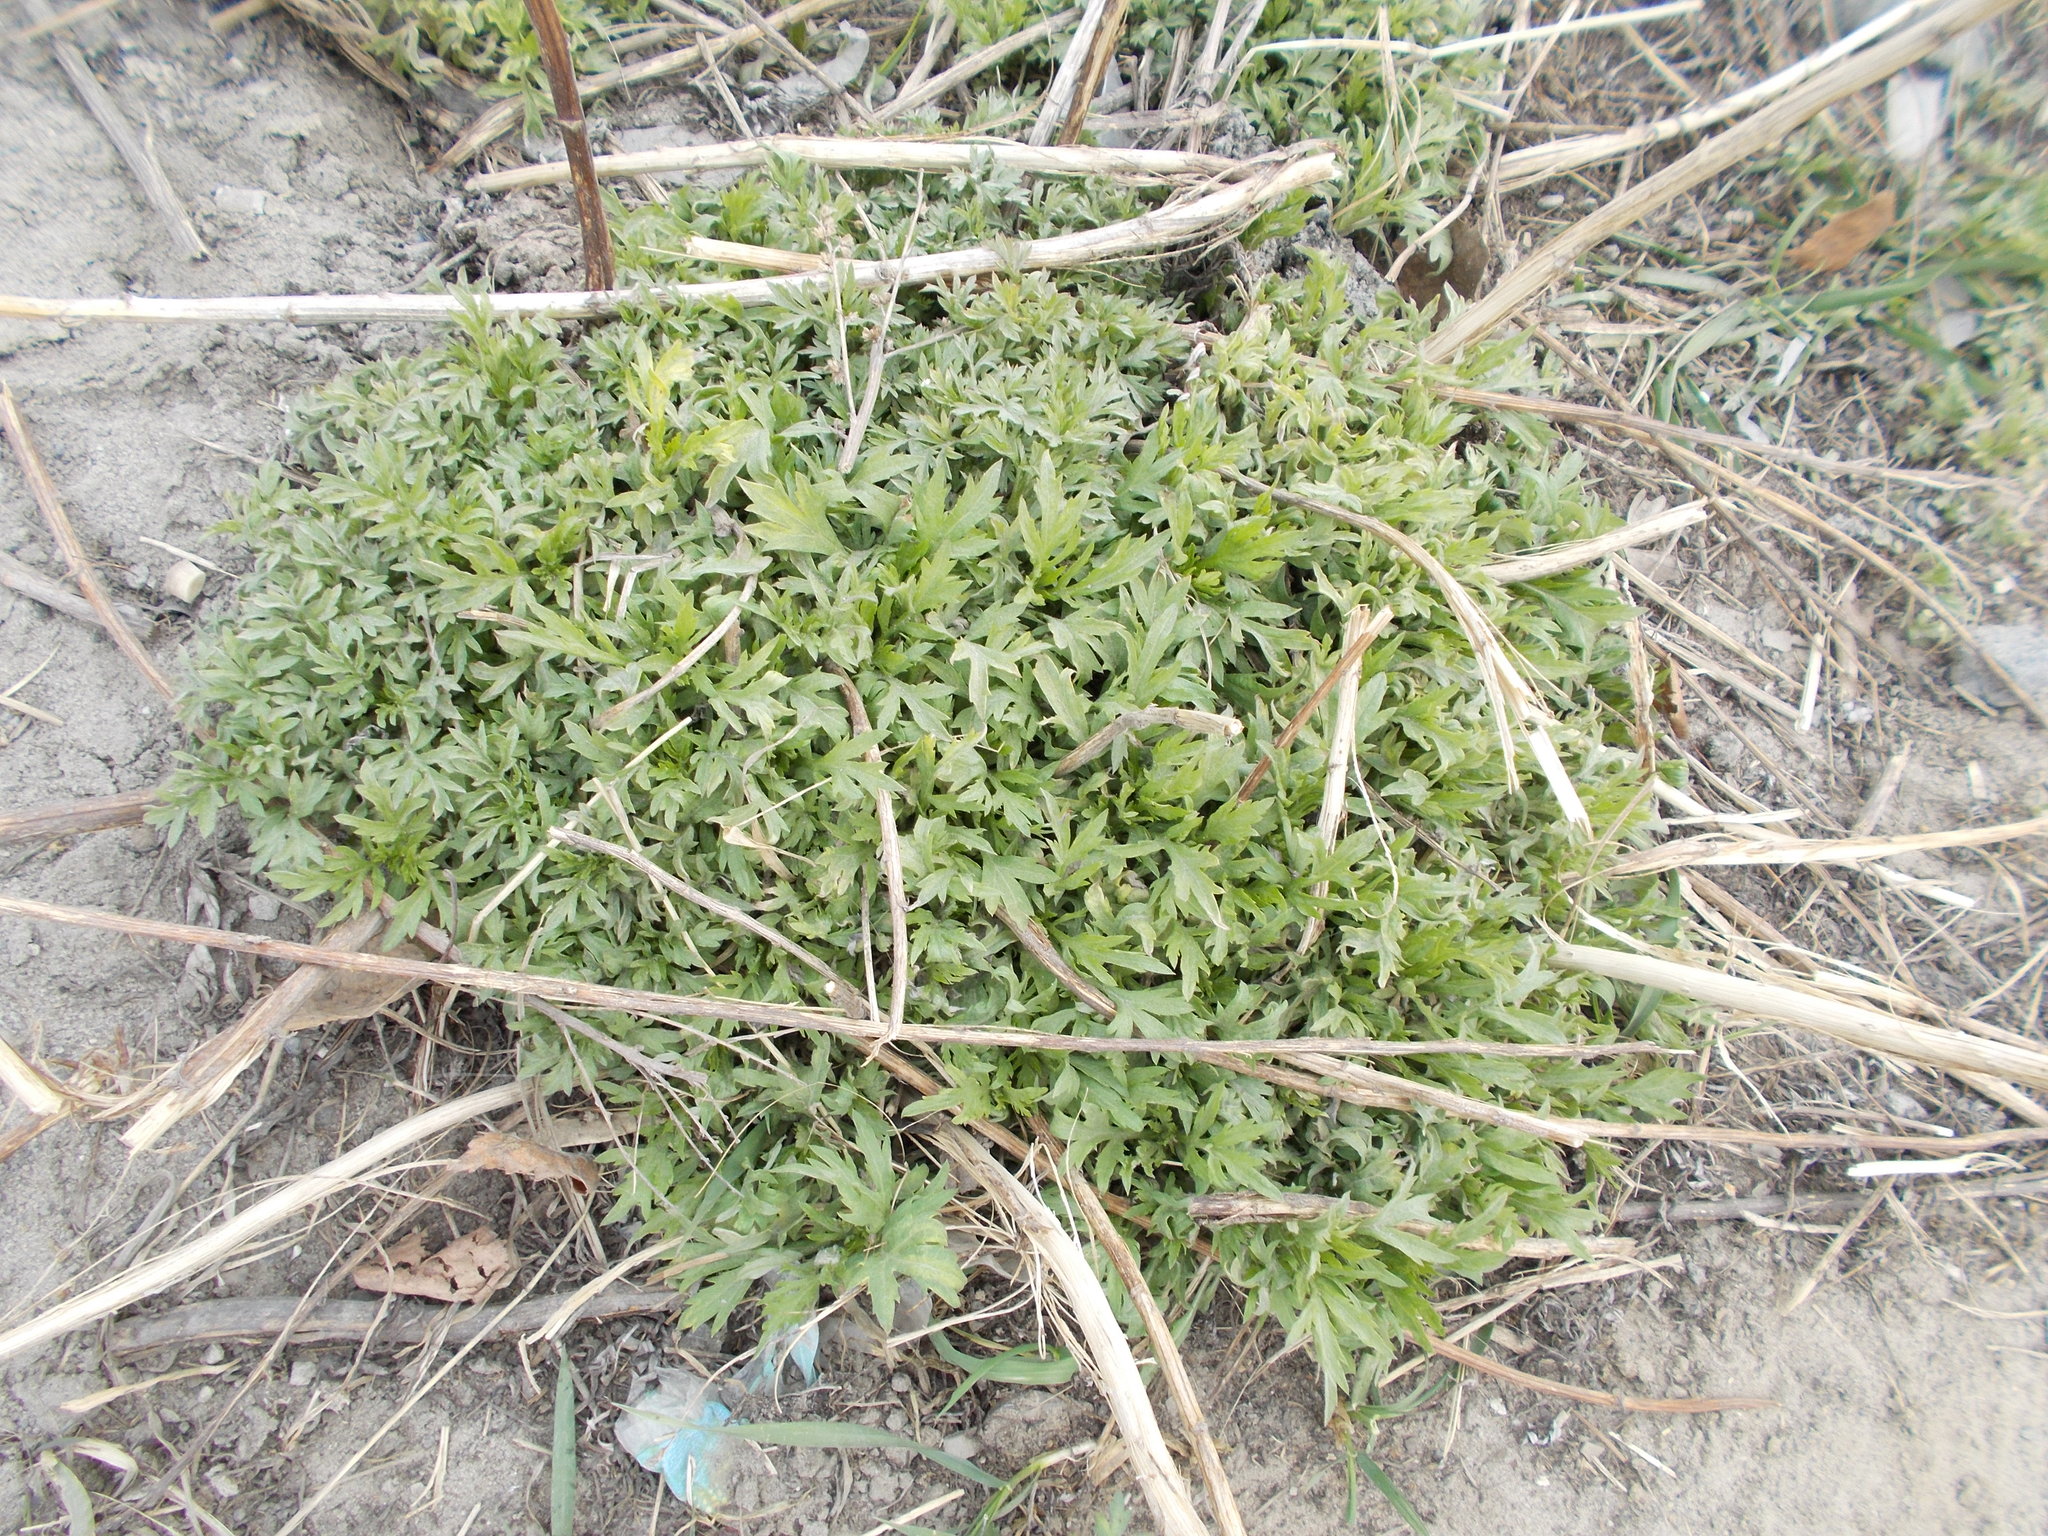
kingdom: Plantae
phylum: Tracheophyta
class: Magnoliopsida
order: Asterales
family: Asteraceae
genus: Artemisia
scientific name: Artemisia vulgaris
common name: Mugwort
